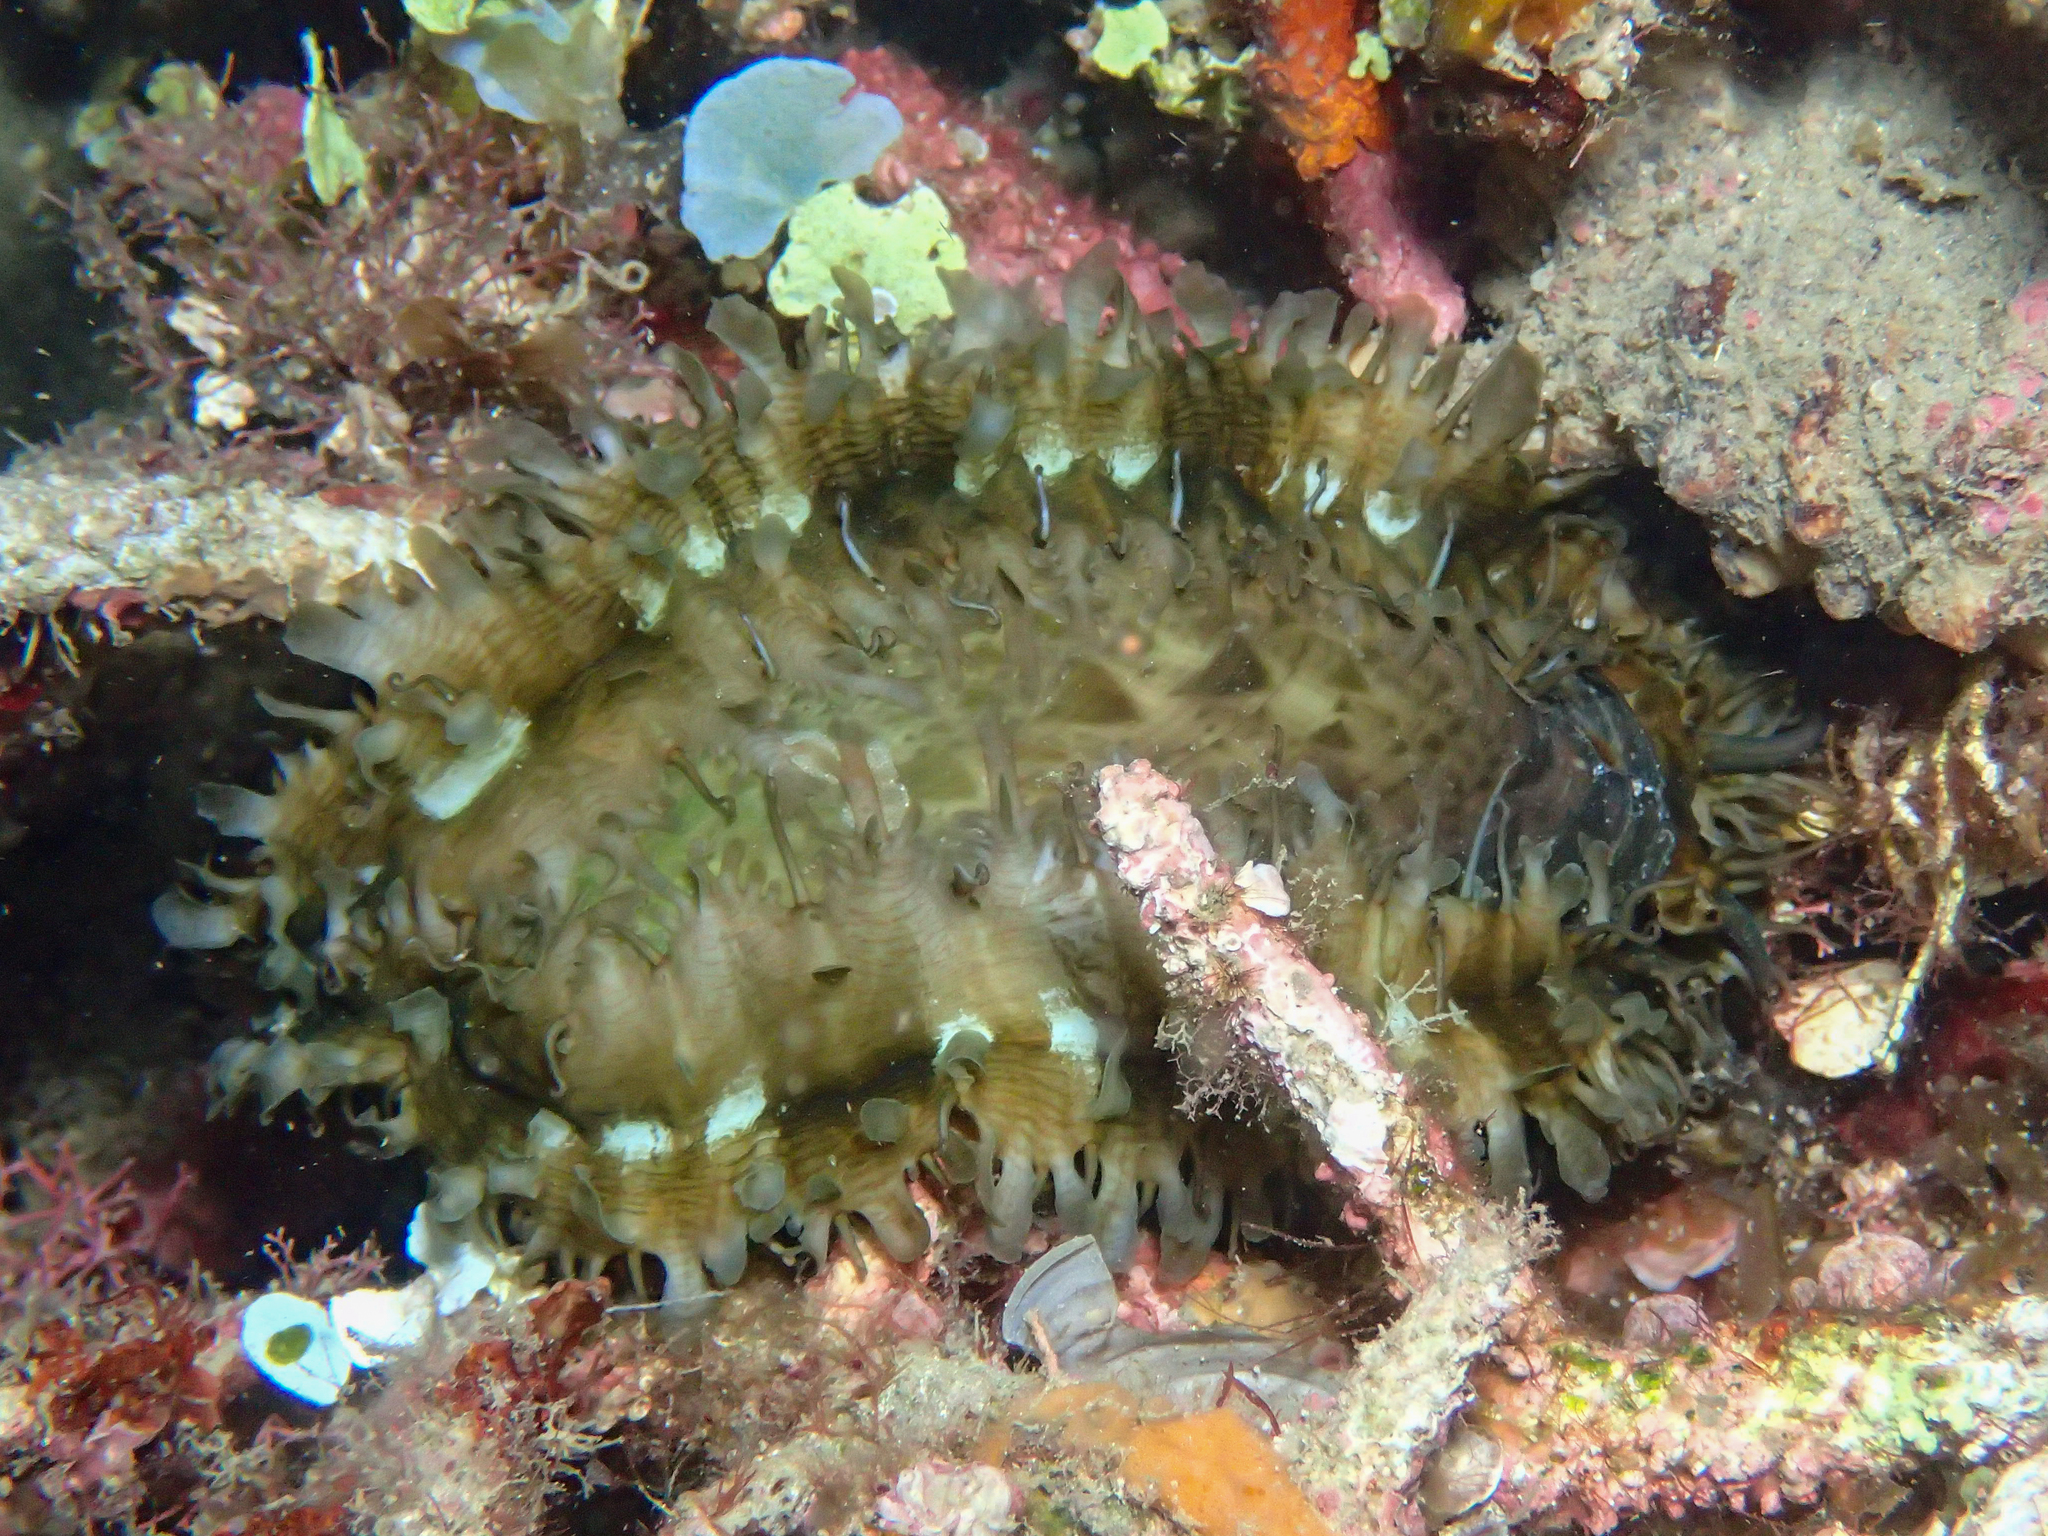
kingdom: Animalia
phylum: Mollusca
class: Gastropoda
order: Lepetellida
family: Haliotidae
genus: Haliotis
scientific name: Haliotis asinina
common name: Donkey's ear abalone
